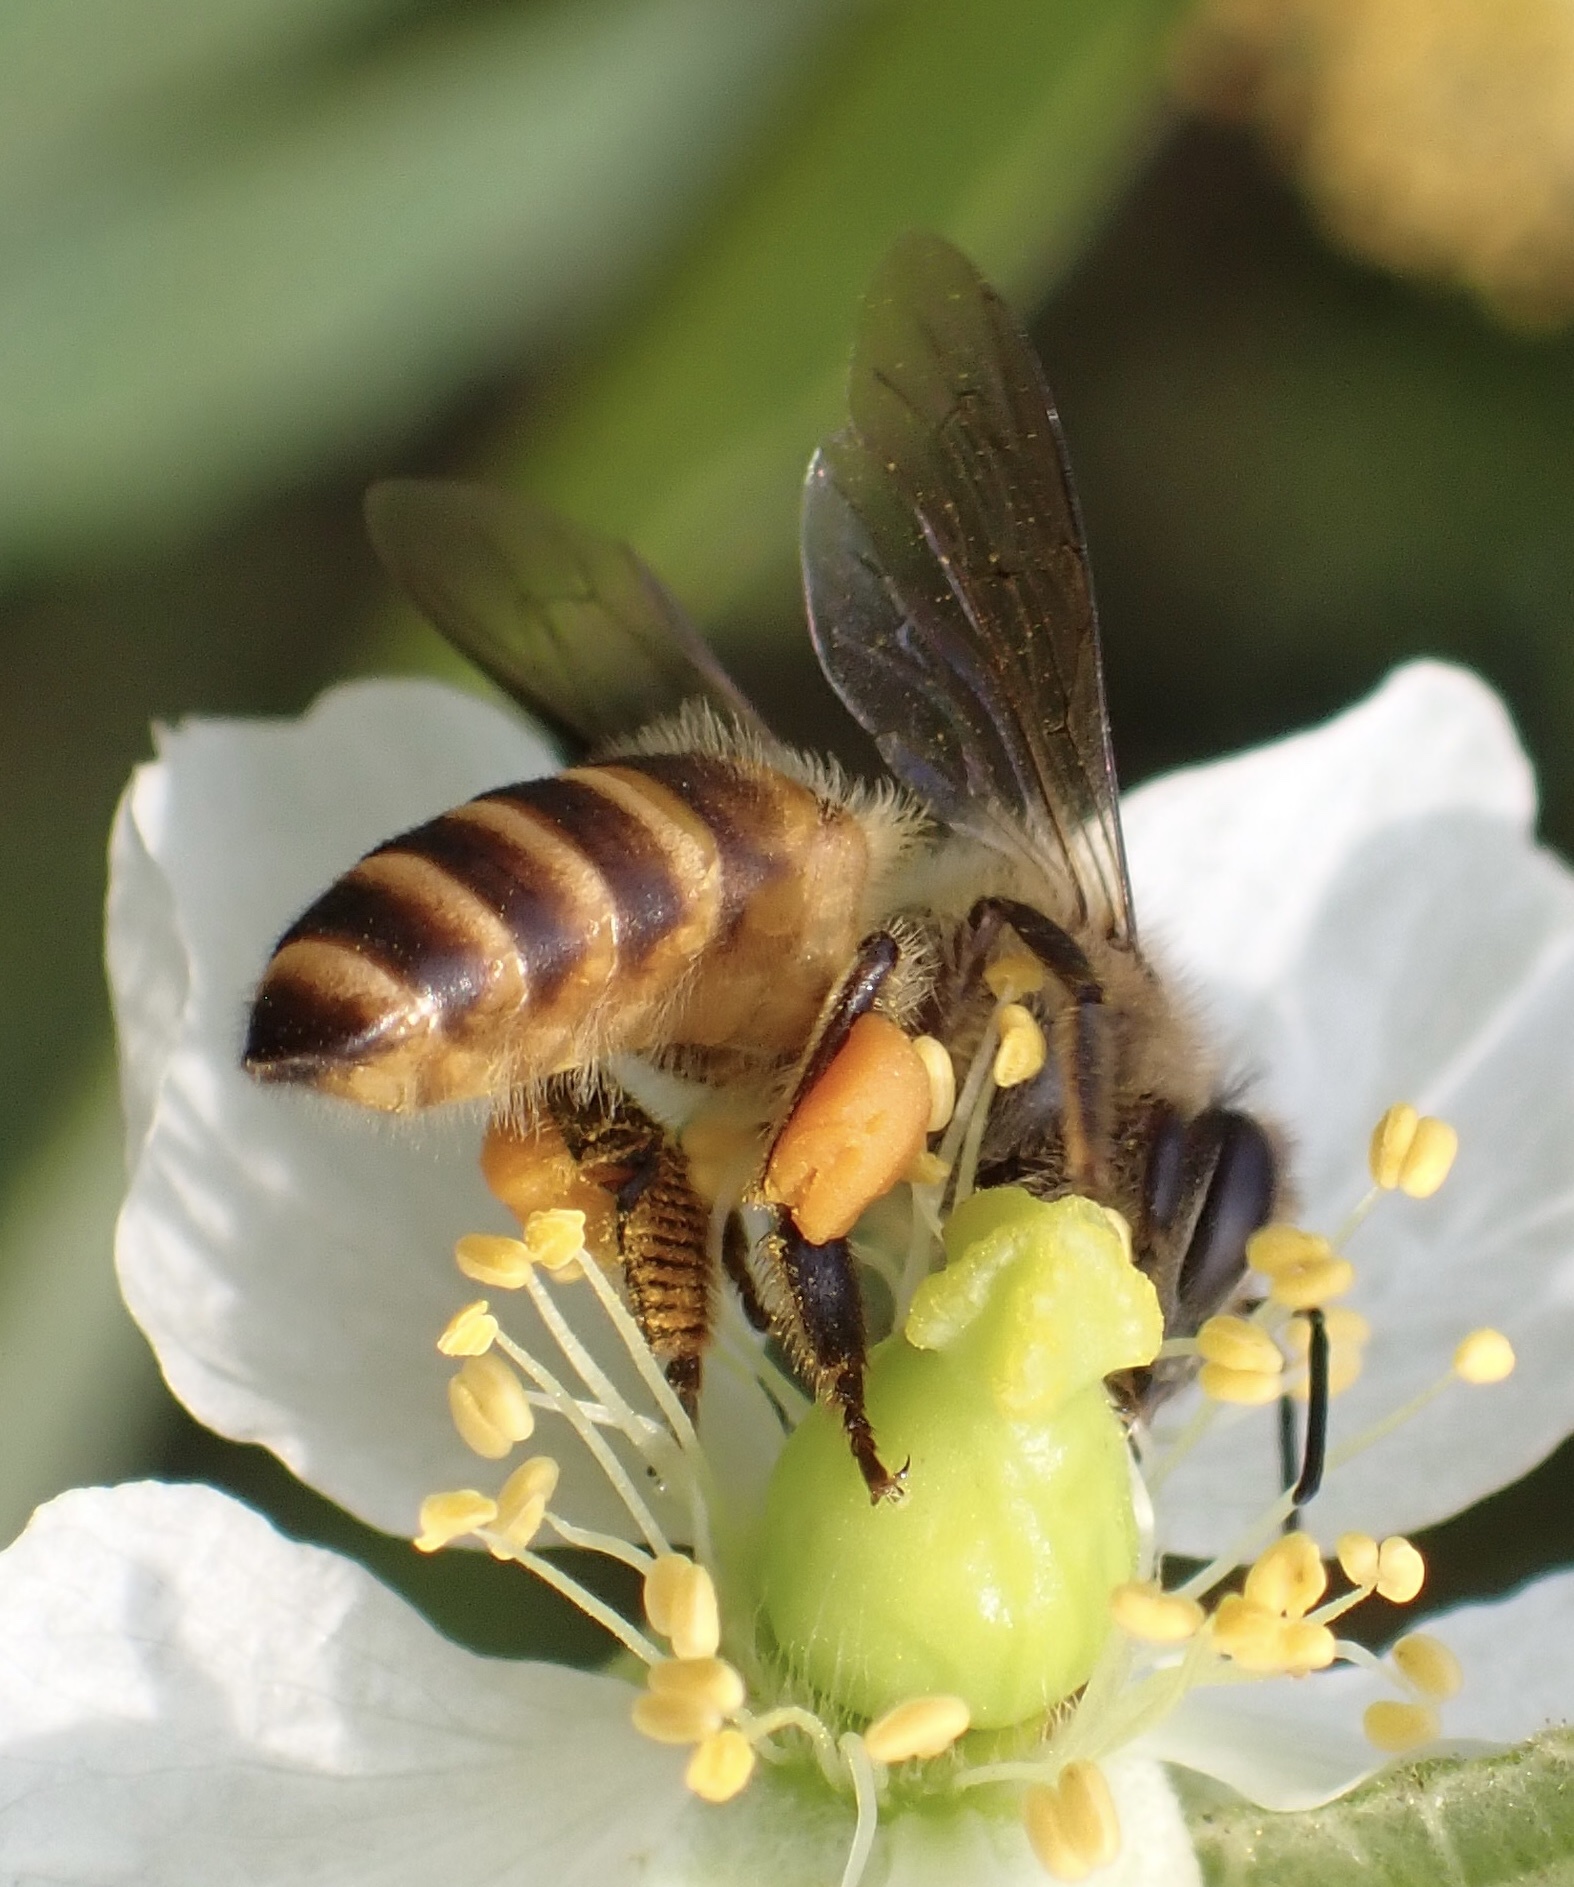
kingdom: Animalia
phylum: Arthropoda
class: Insecta
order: Hymenoptera
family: Apidae
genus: Apis
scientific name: Apis cerana
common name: Honey bee
